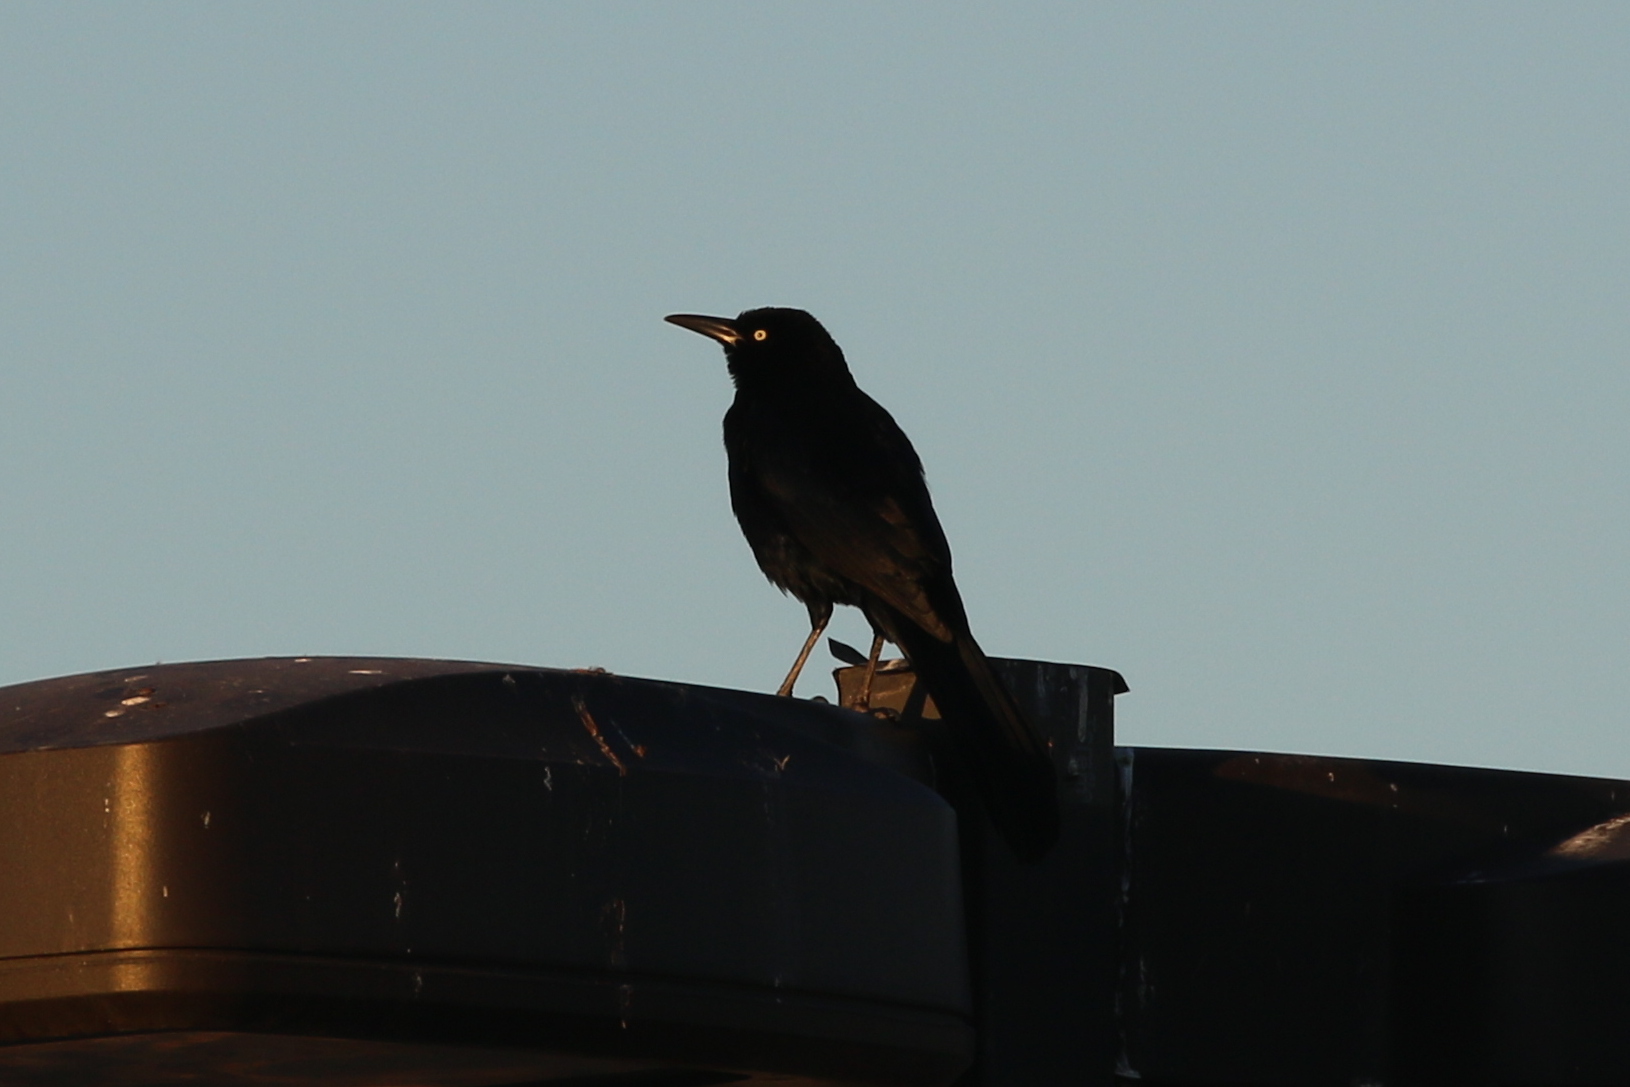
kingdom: Animalia
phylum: Chordata
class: Aves
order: Passeriformes
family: Icteridae
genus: Quiscalus
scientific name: Quiscalus mexicanus
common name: Great-tailed grackle
